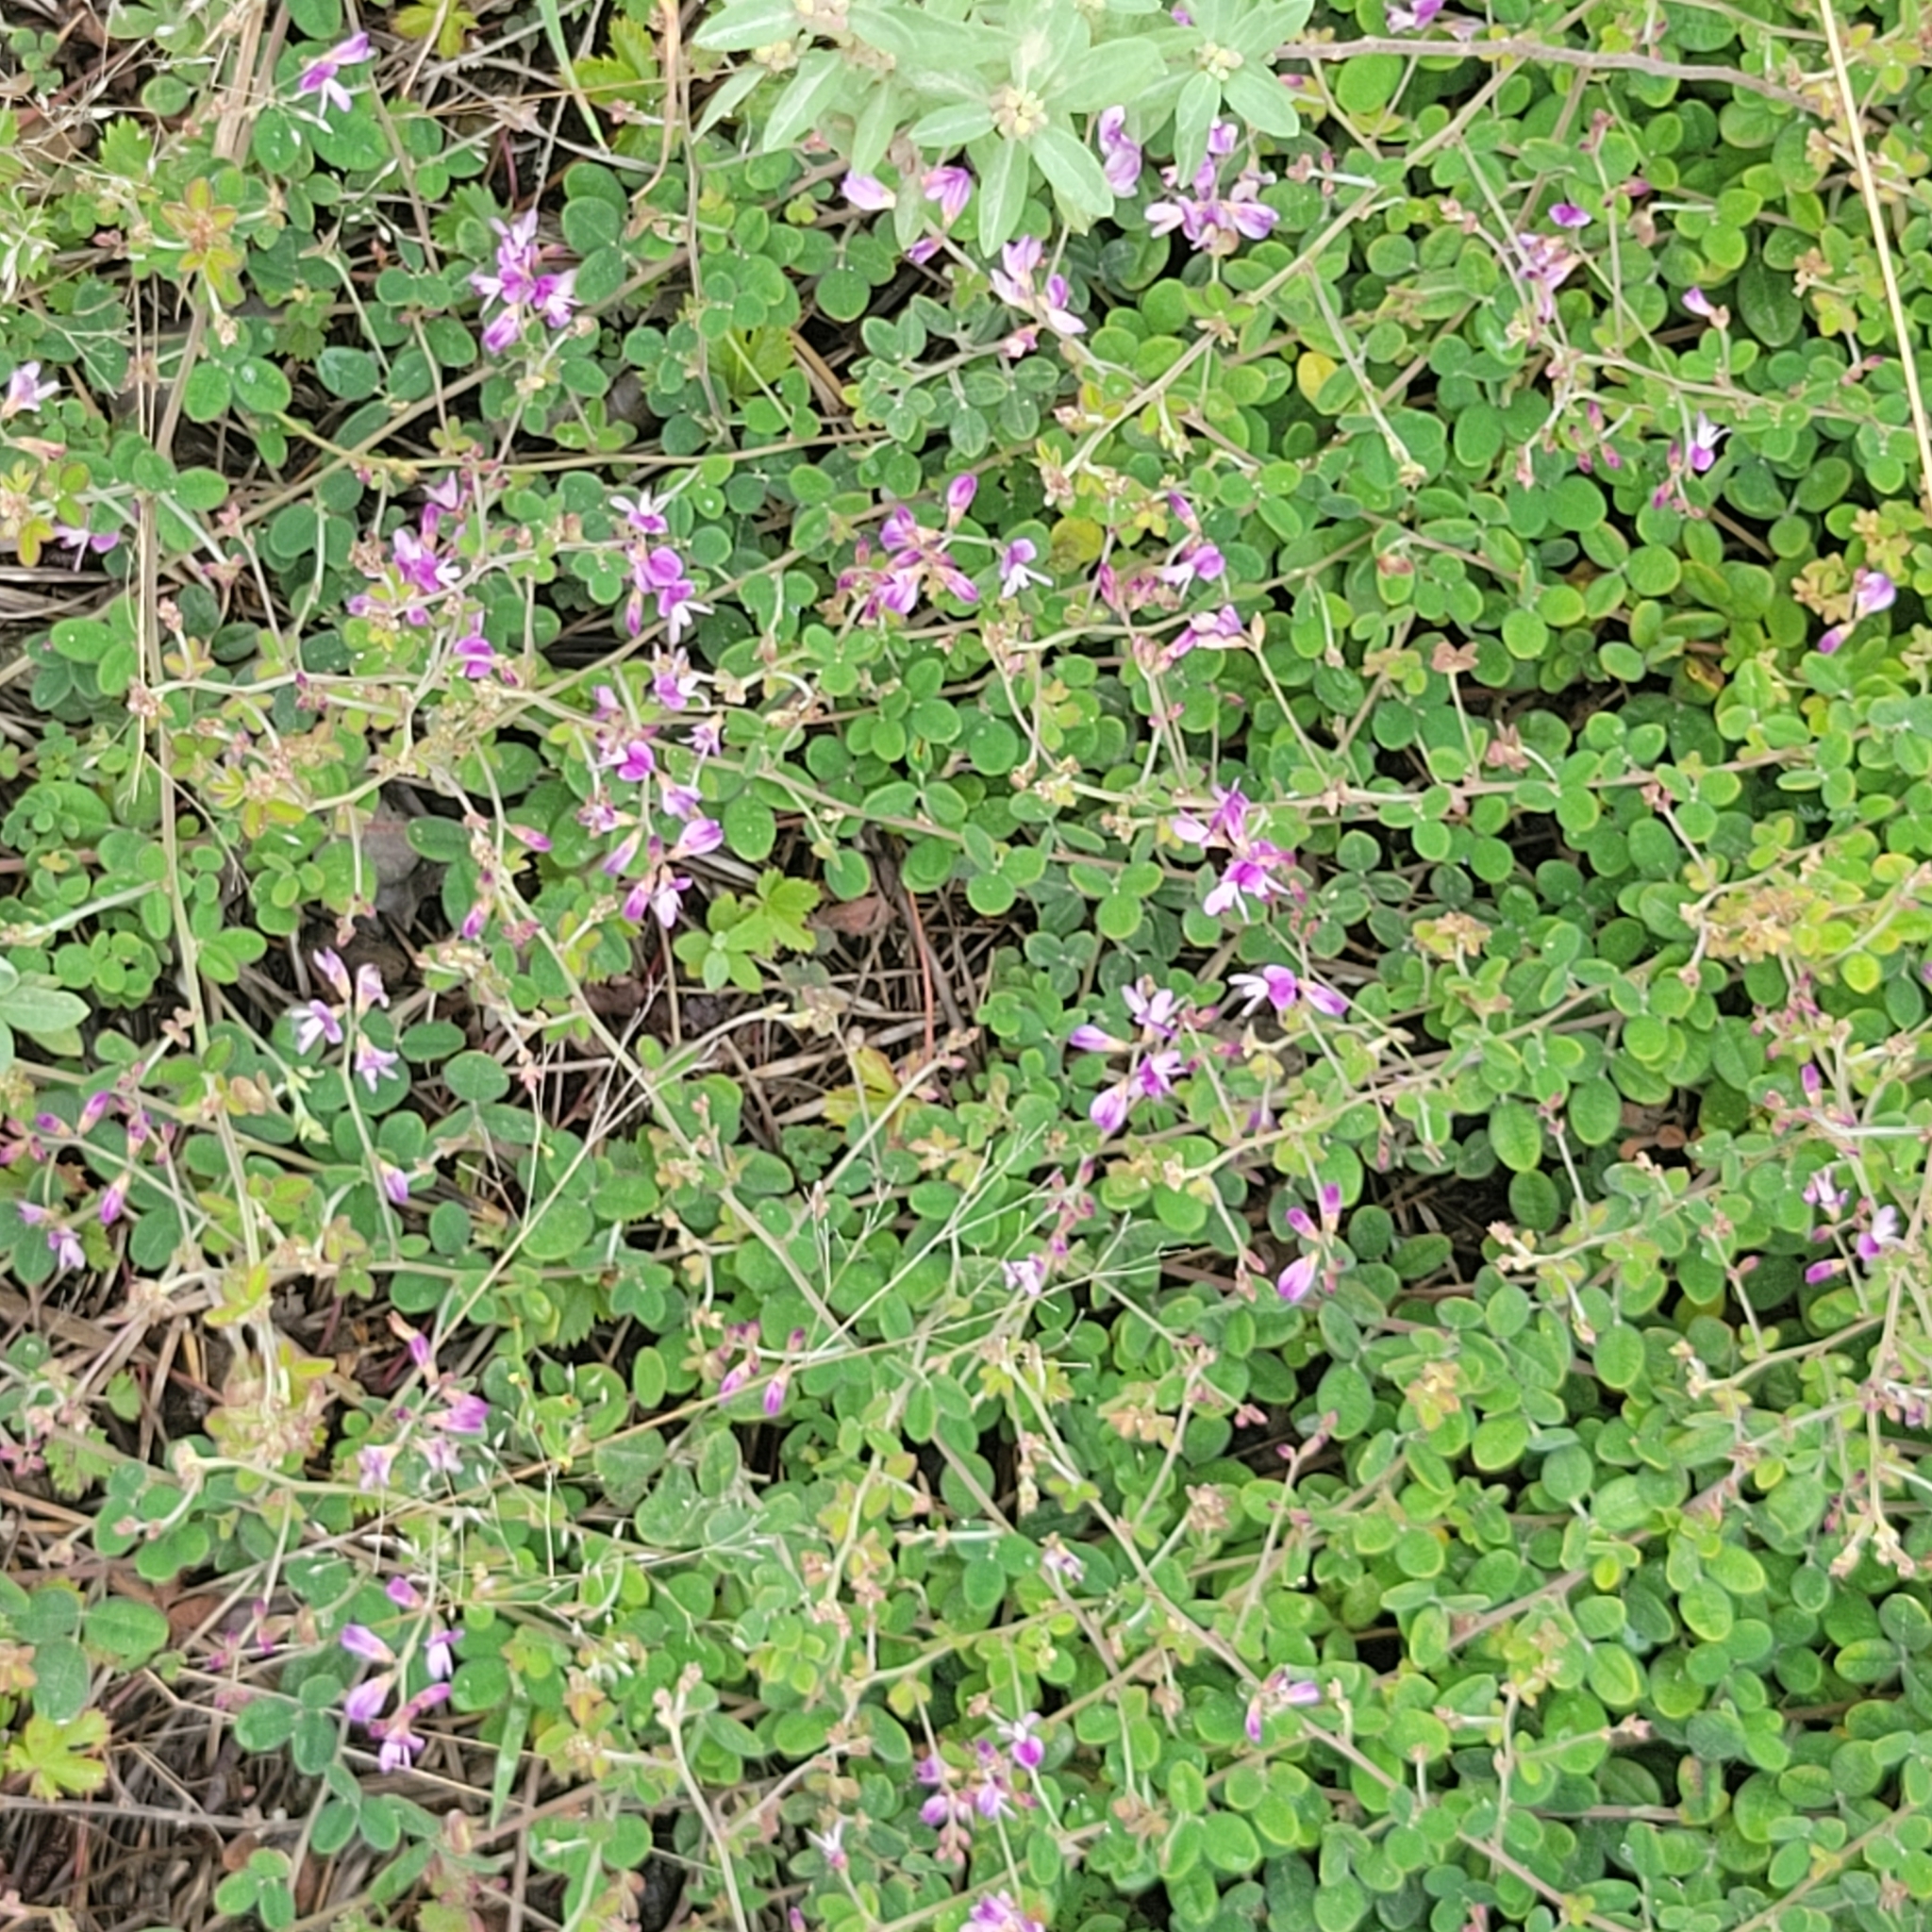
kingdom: Plantae
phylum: Tracheophyta
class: Magnoliopsida
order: Fabales
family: Fabaceae
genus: Lespedeza
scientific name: Lespedeza procumbens
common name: Downy trailing bush-clover
